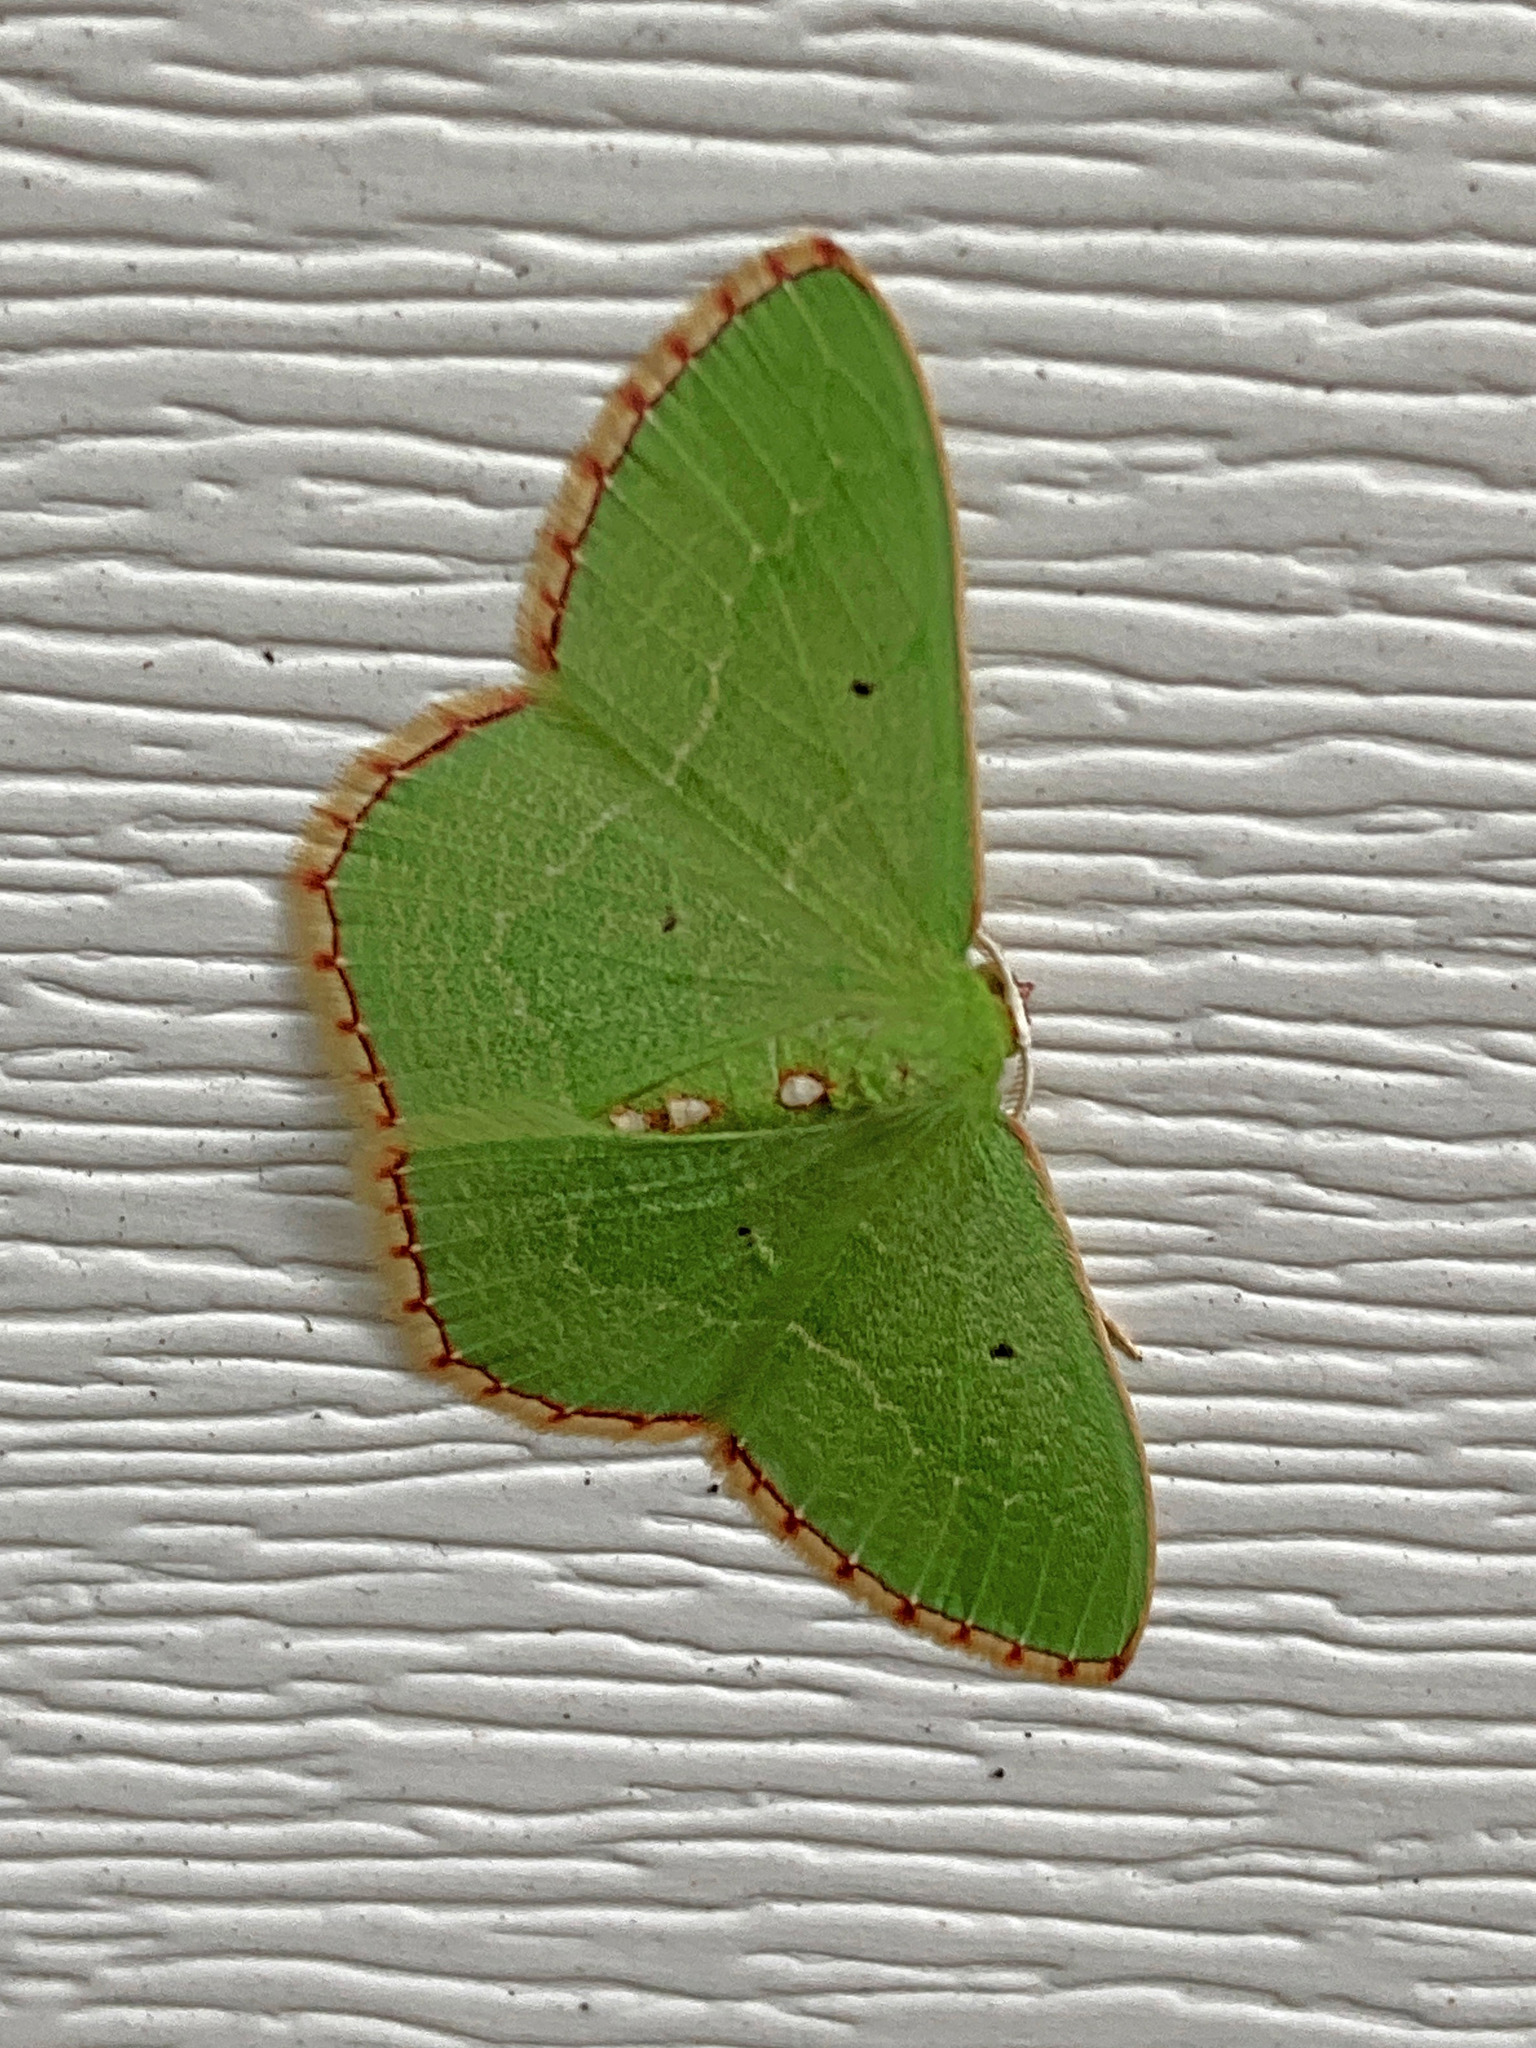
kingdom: Animalia
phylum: Arthropoda
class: Insecta
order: Lepidoptera
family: Geometridae
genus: Nemoria
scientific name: Nemoria lixaria
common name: Red-bordered emerald
